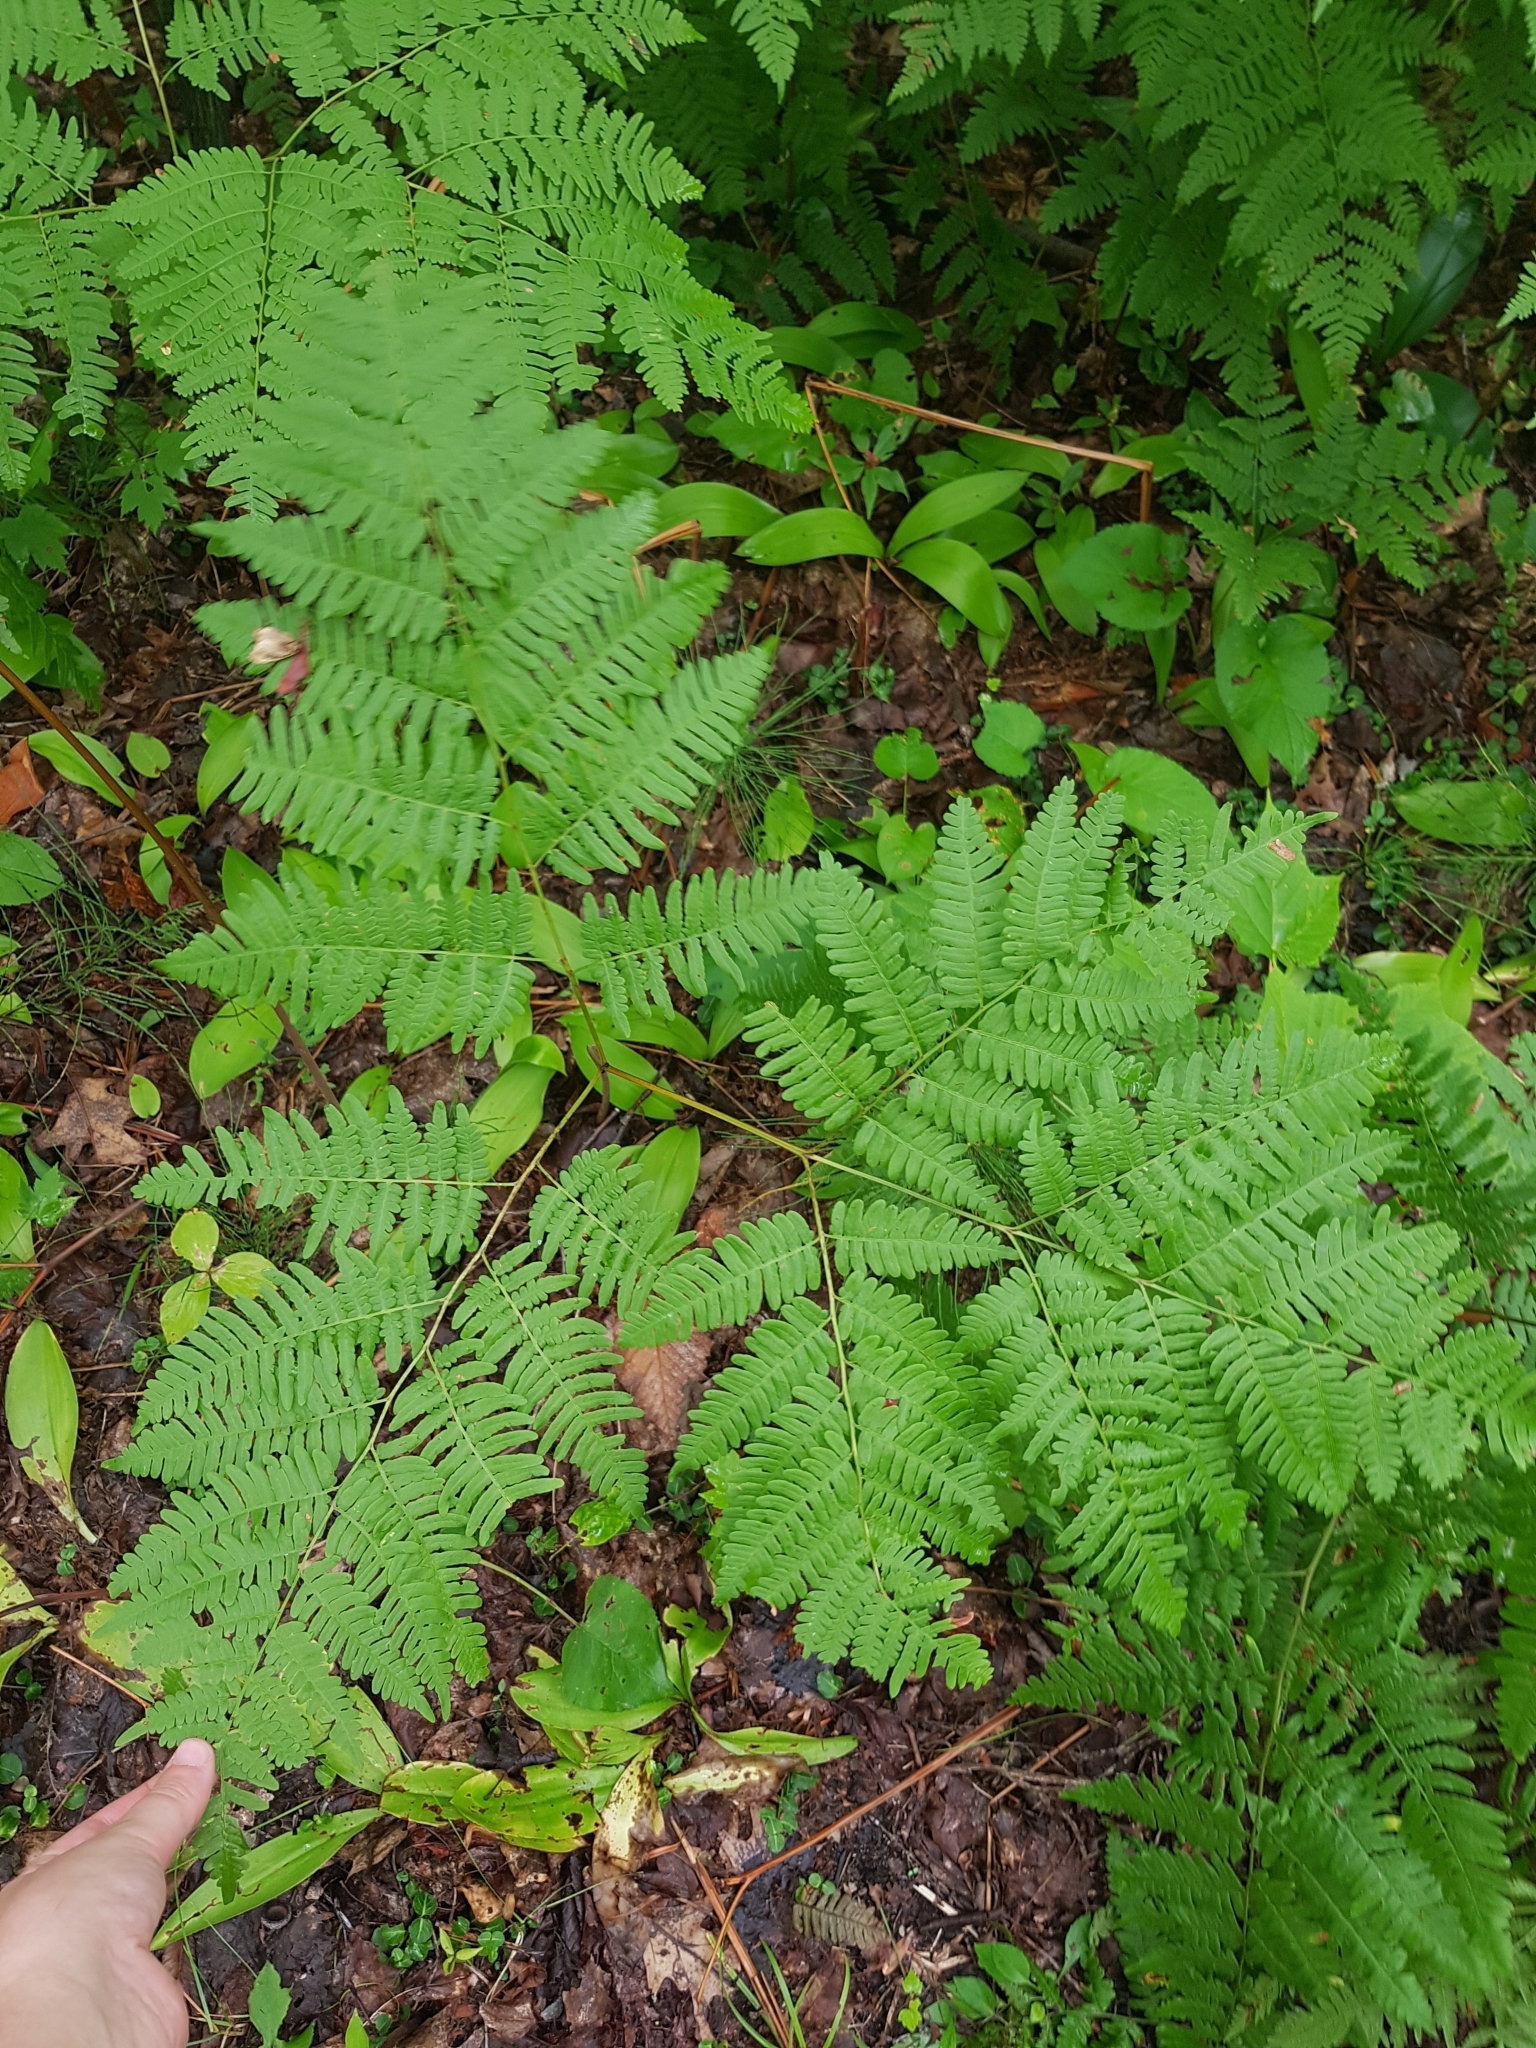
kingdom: Plantae
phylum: Tracheophyta
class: Polypodiopsida
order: Polypodiales
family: Dennstaedtiaceae
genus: Pteridium
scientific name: Pteridium aquilinum
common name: Bracken
